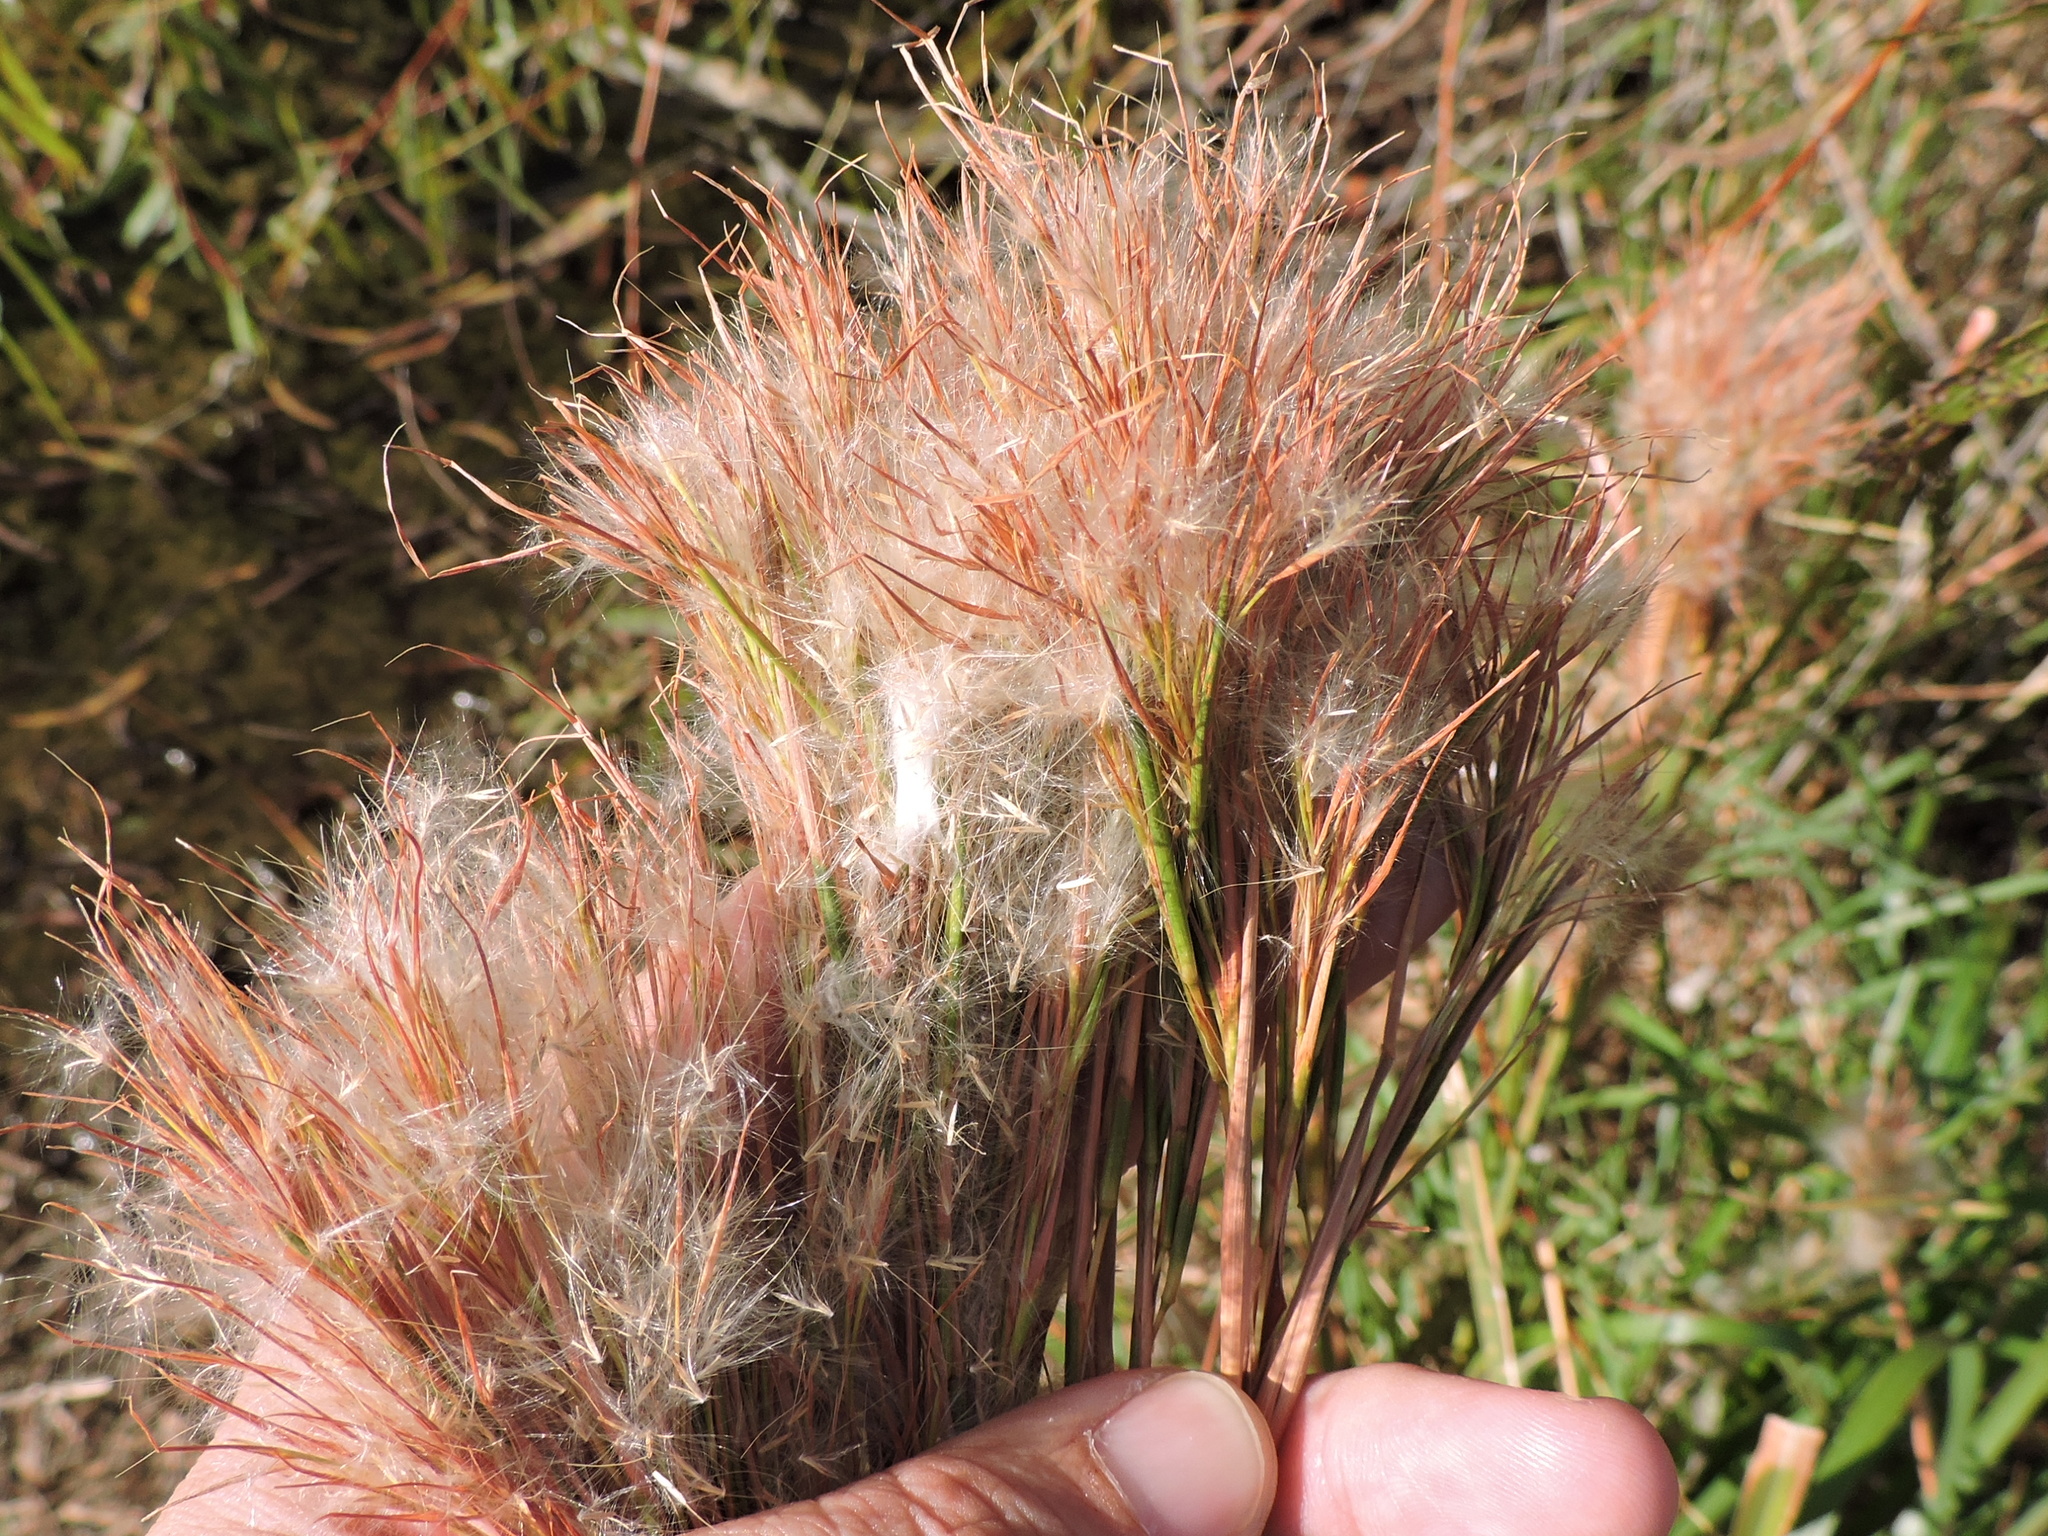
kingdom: Plantae
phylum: Tracheophyta
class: Liliopsida
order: Poales
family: Poaceae
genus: Andropogon
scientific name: Andropogon tenuispatheus
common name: Bushy bluestem
